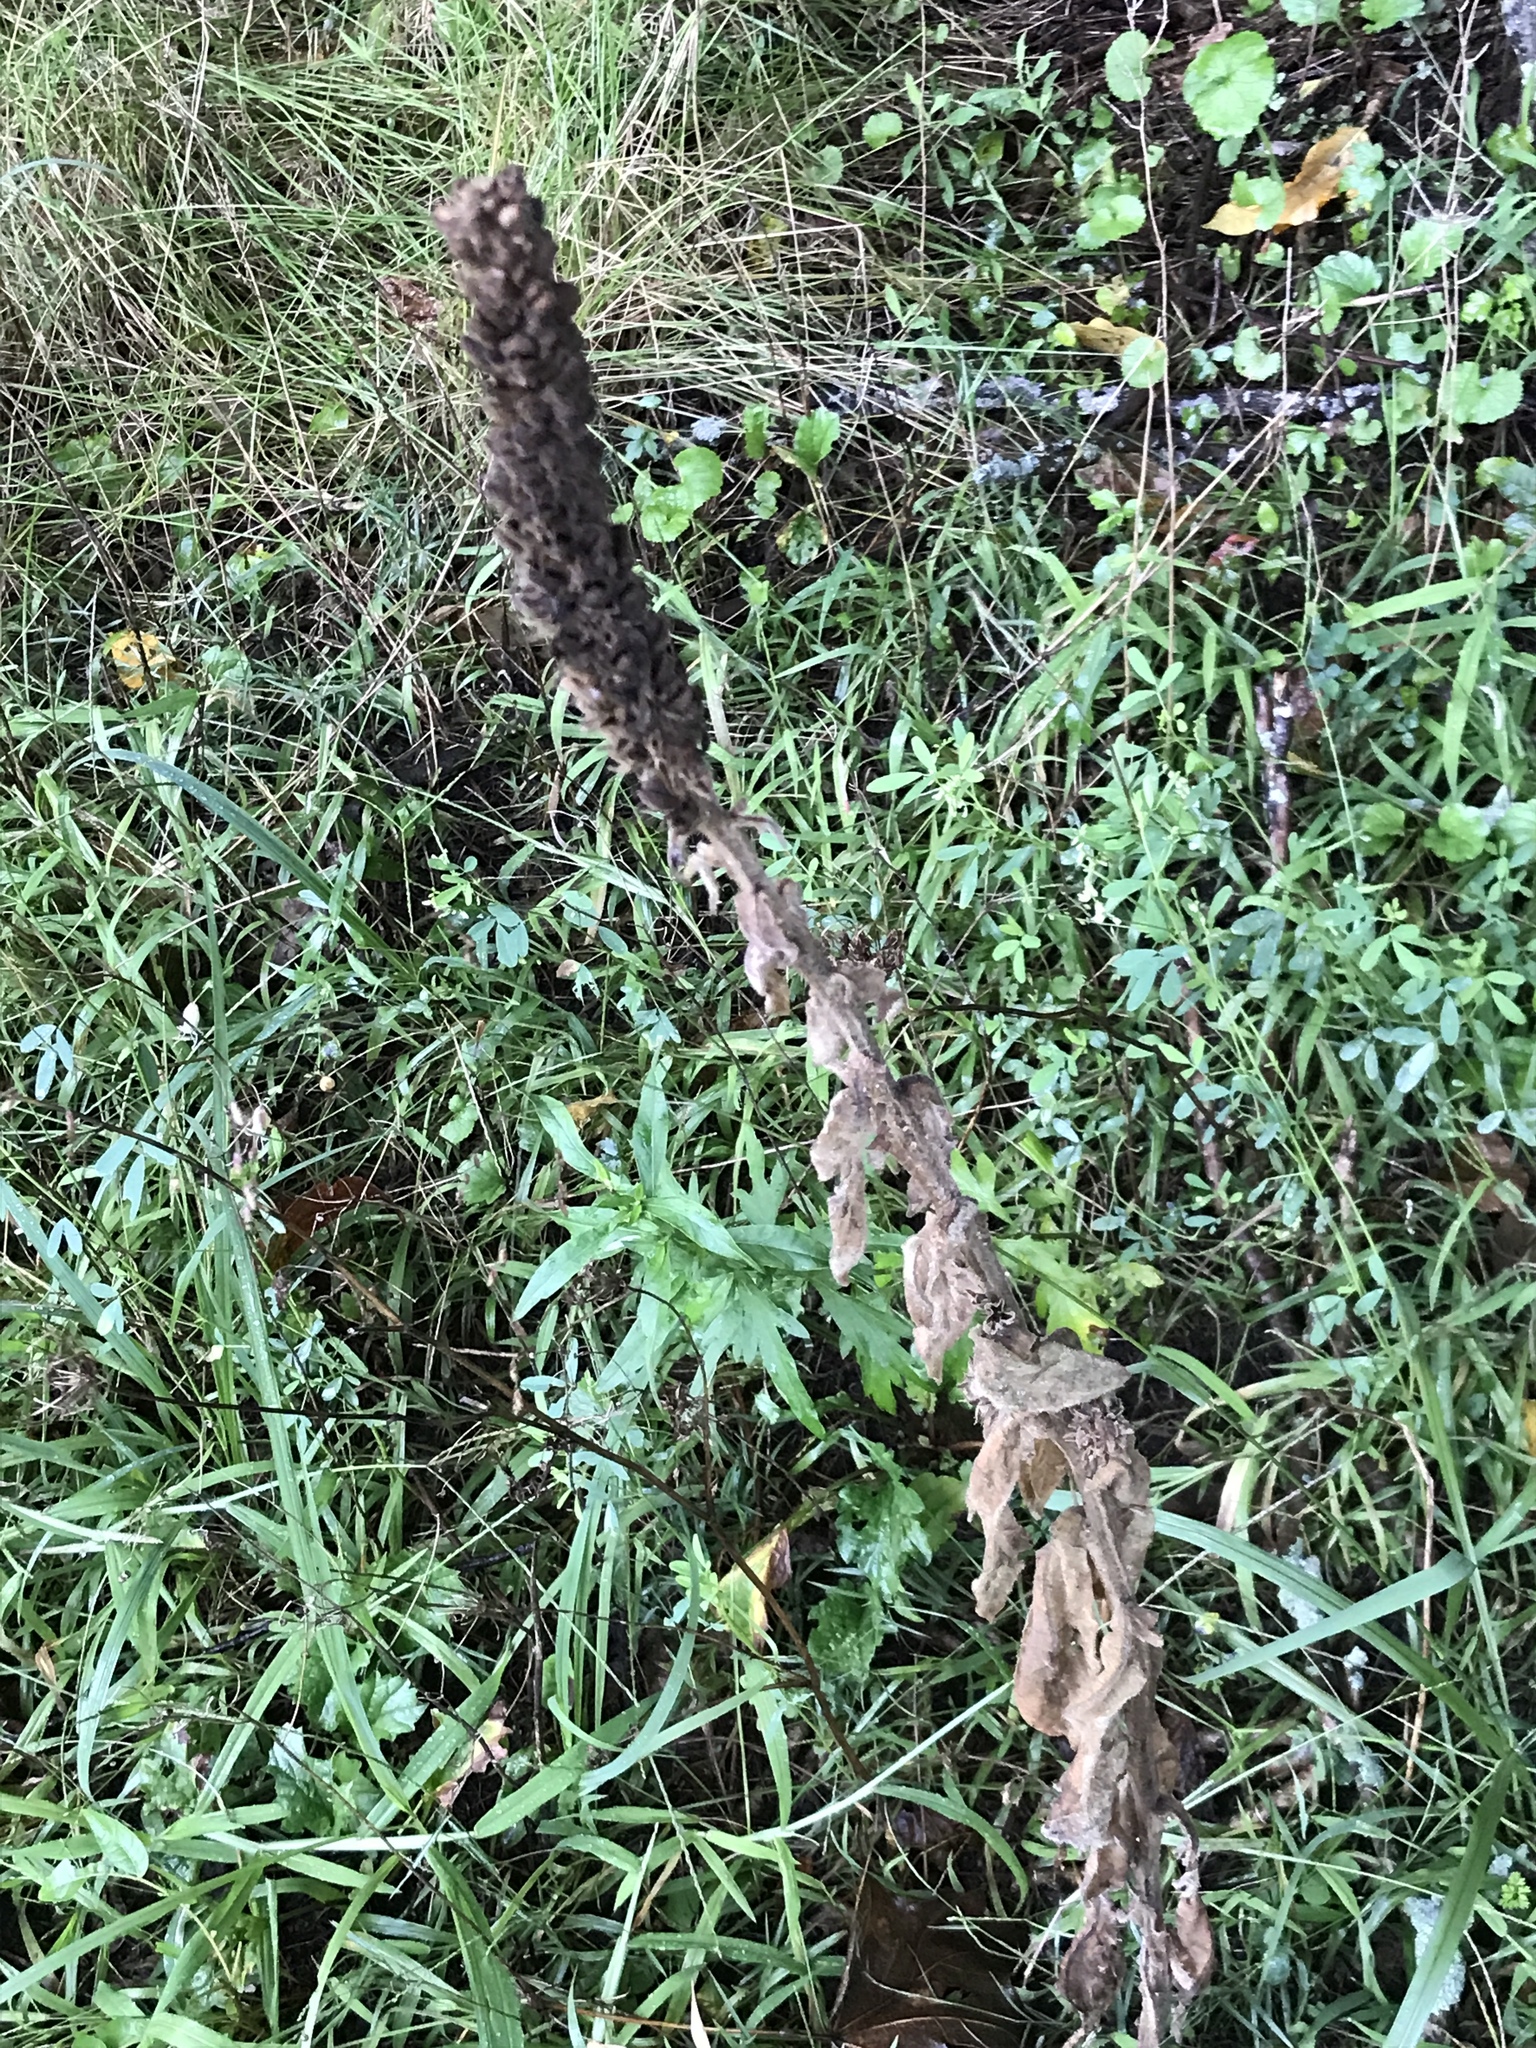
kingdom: Plantae
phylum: Tracheophyta
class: Magnoliopsida
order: Lamiales
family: Scrophulariaceae
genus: Verbascum
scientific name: Verbascum thapsus
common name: Common mullein
